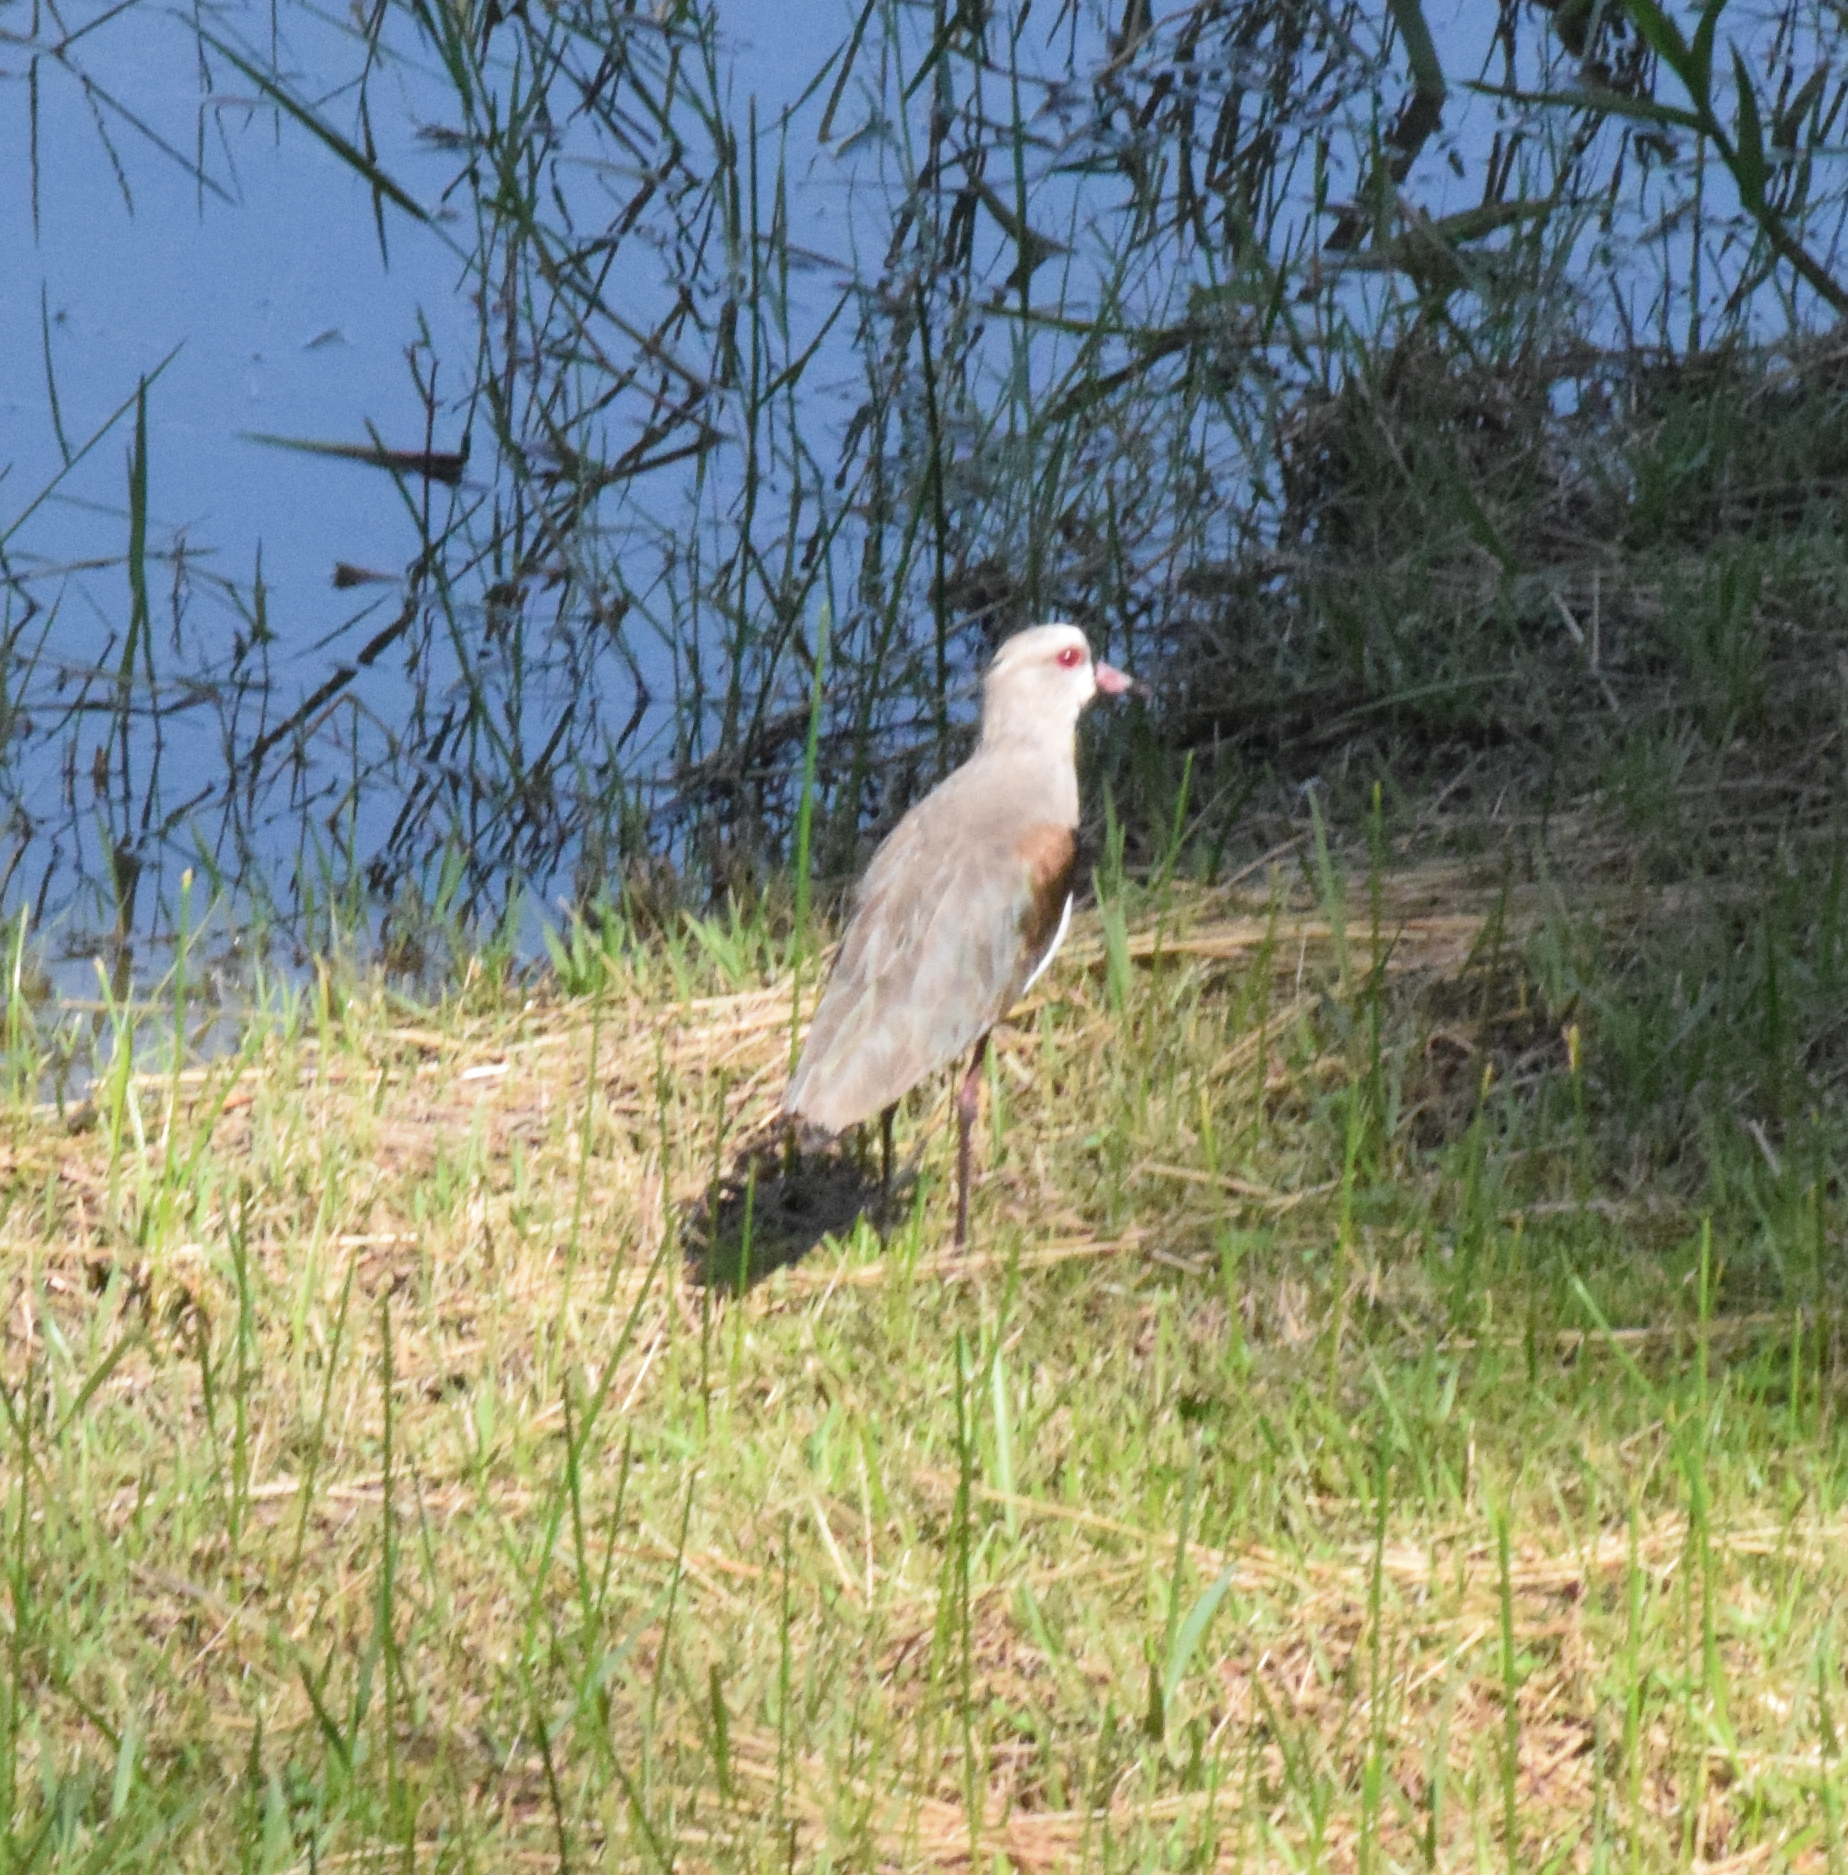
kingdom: Animalia
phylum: Chordata
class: Aves
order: Charadriiformes
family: Charadriidae
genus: Vanellus
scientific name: Vanellus chilensis
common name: Southern lapwing
